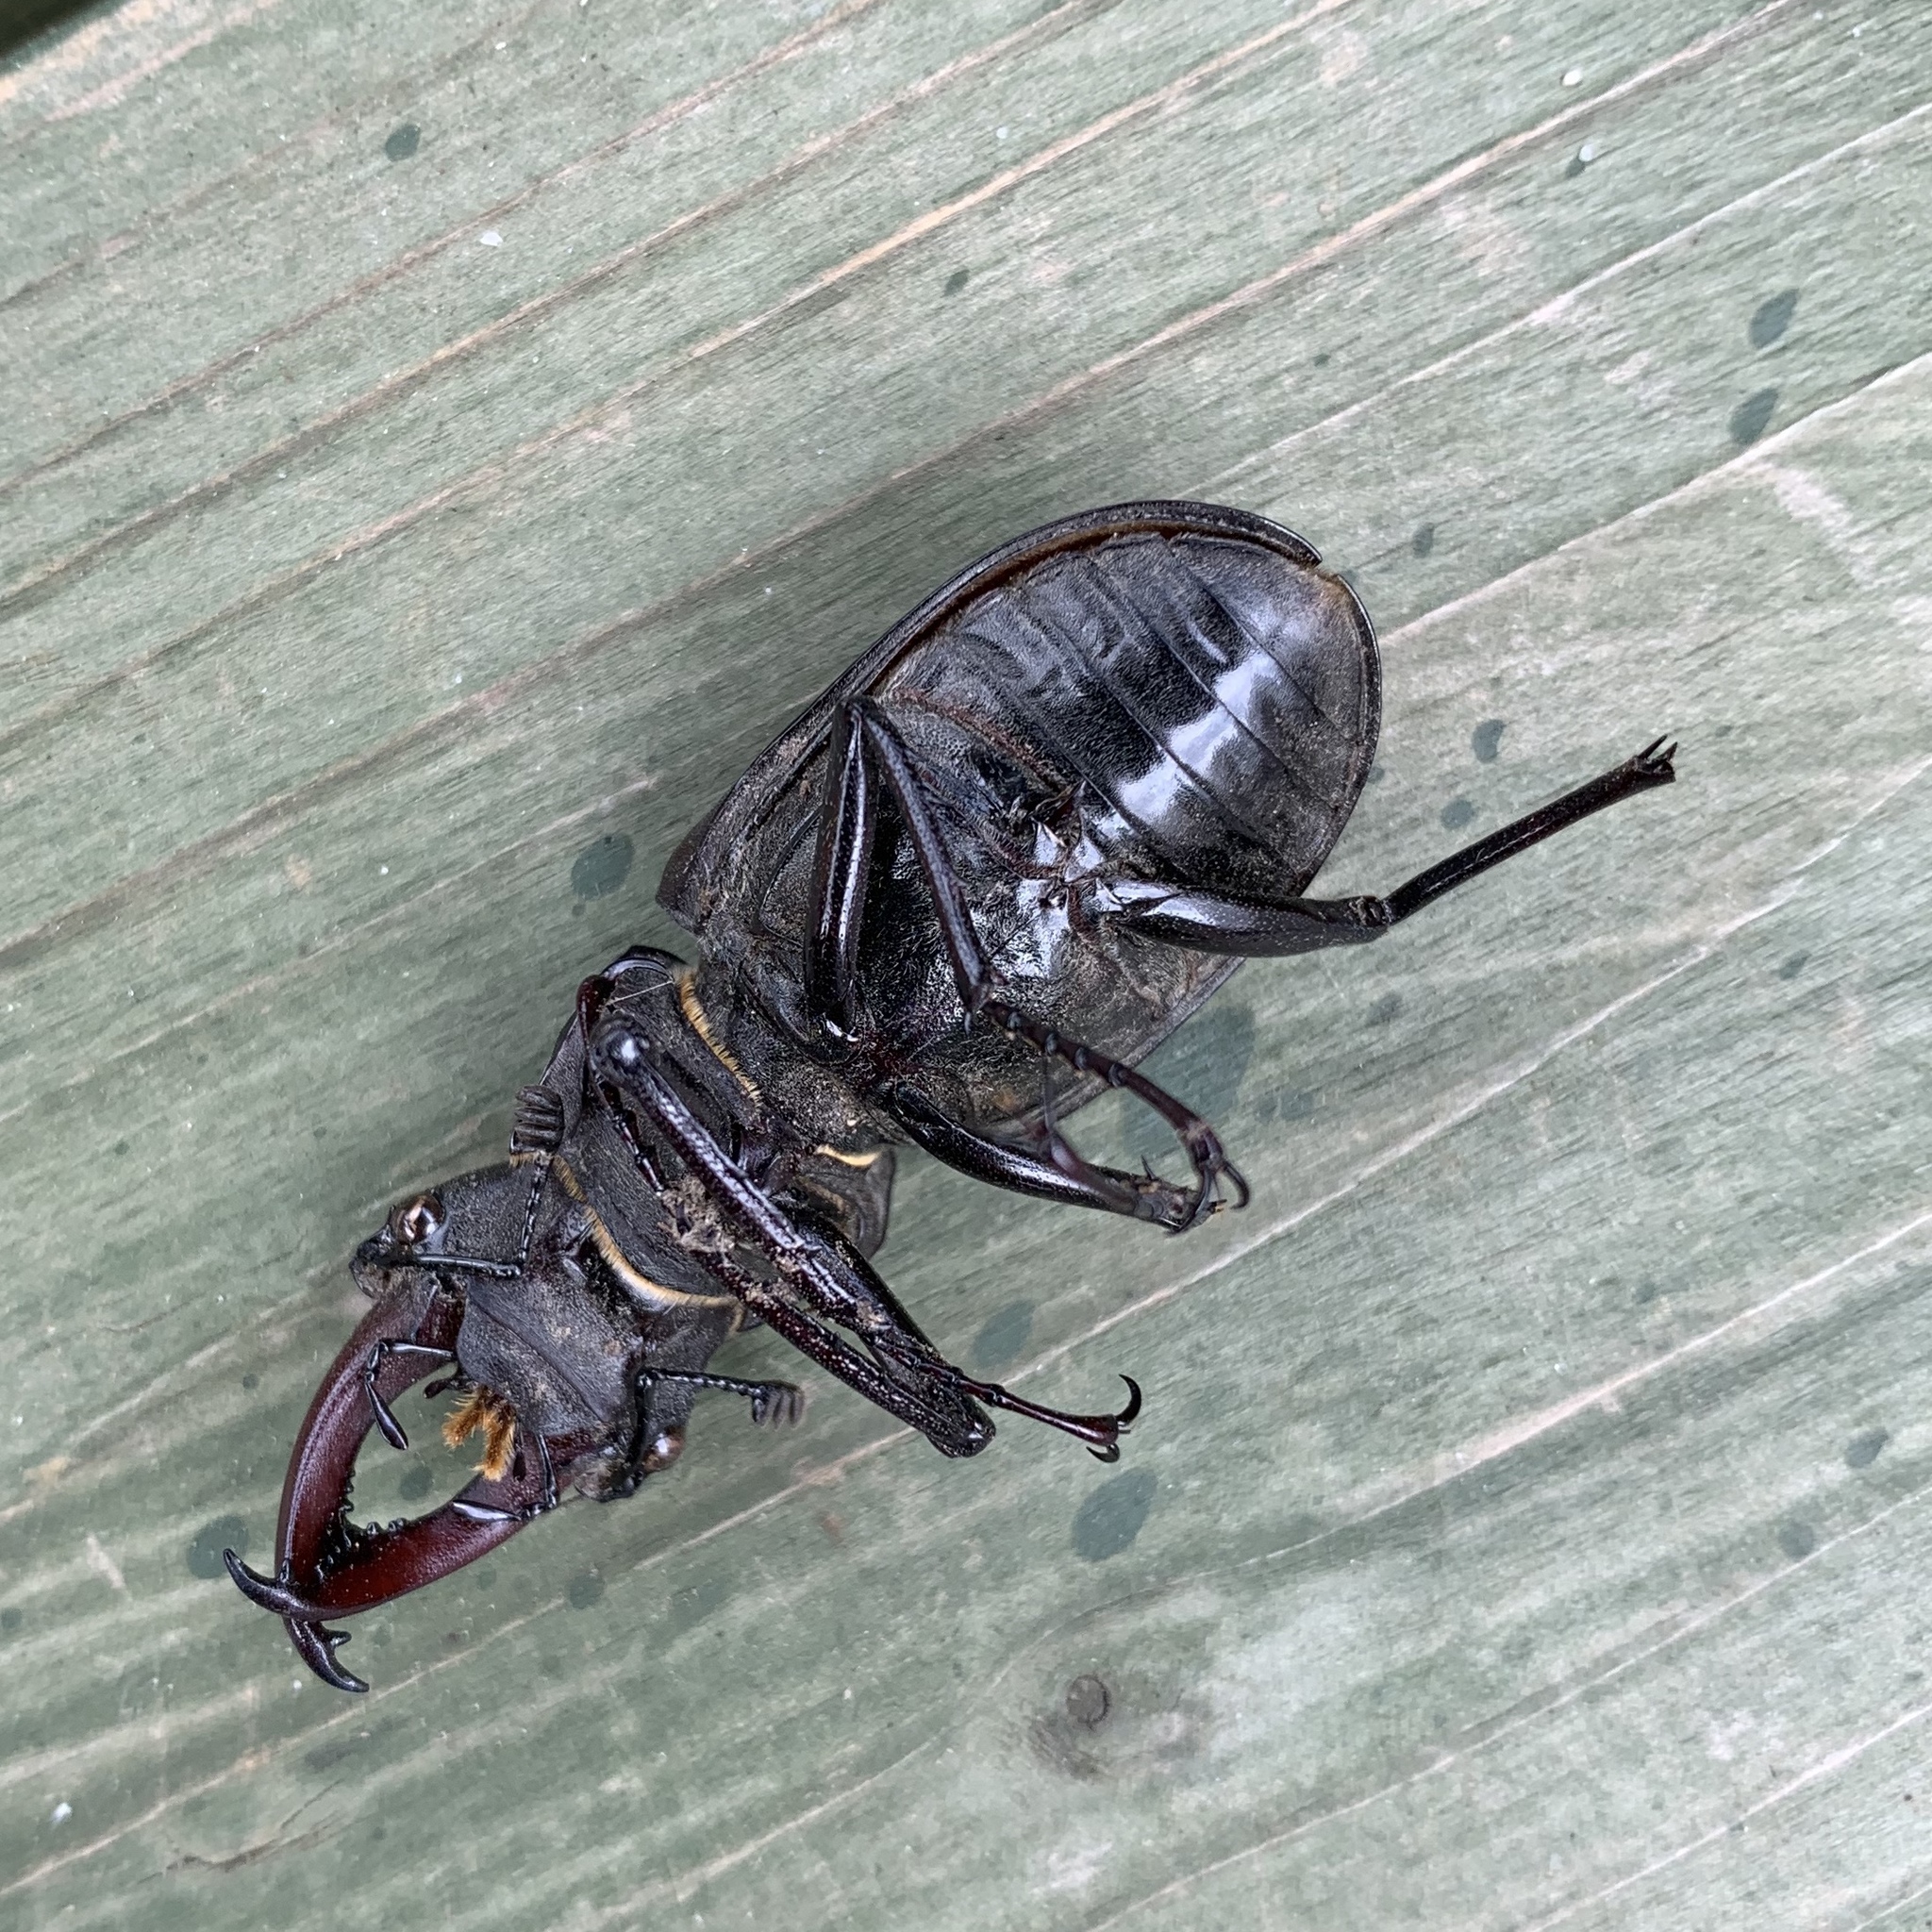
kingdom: Animalia
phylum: Arthropoda
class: Insecta
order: Coleoptera
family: Lucanidae
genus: Lucanus
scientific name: Lucanus cervus
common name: Stag beetle
